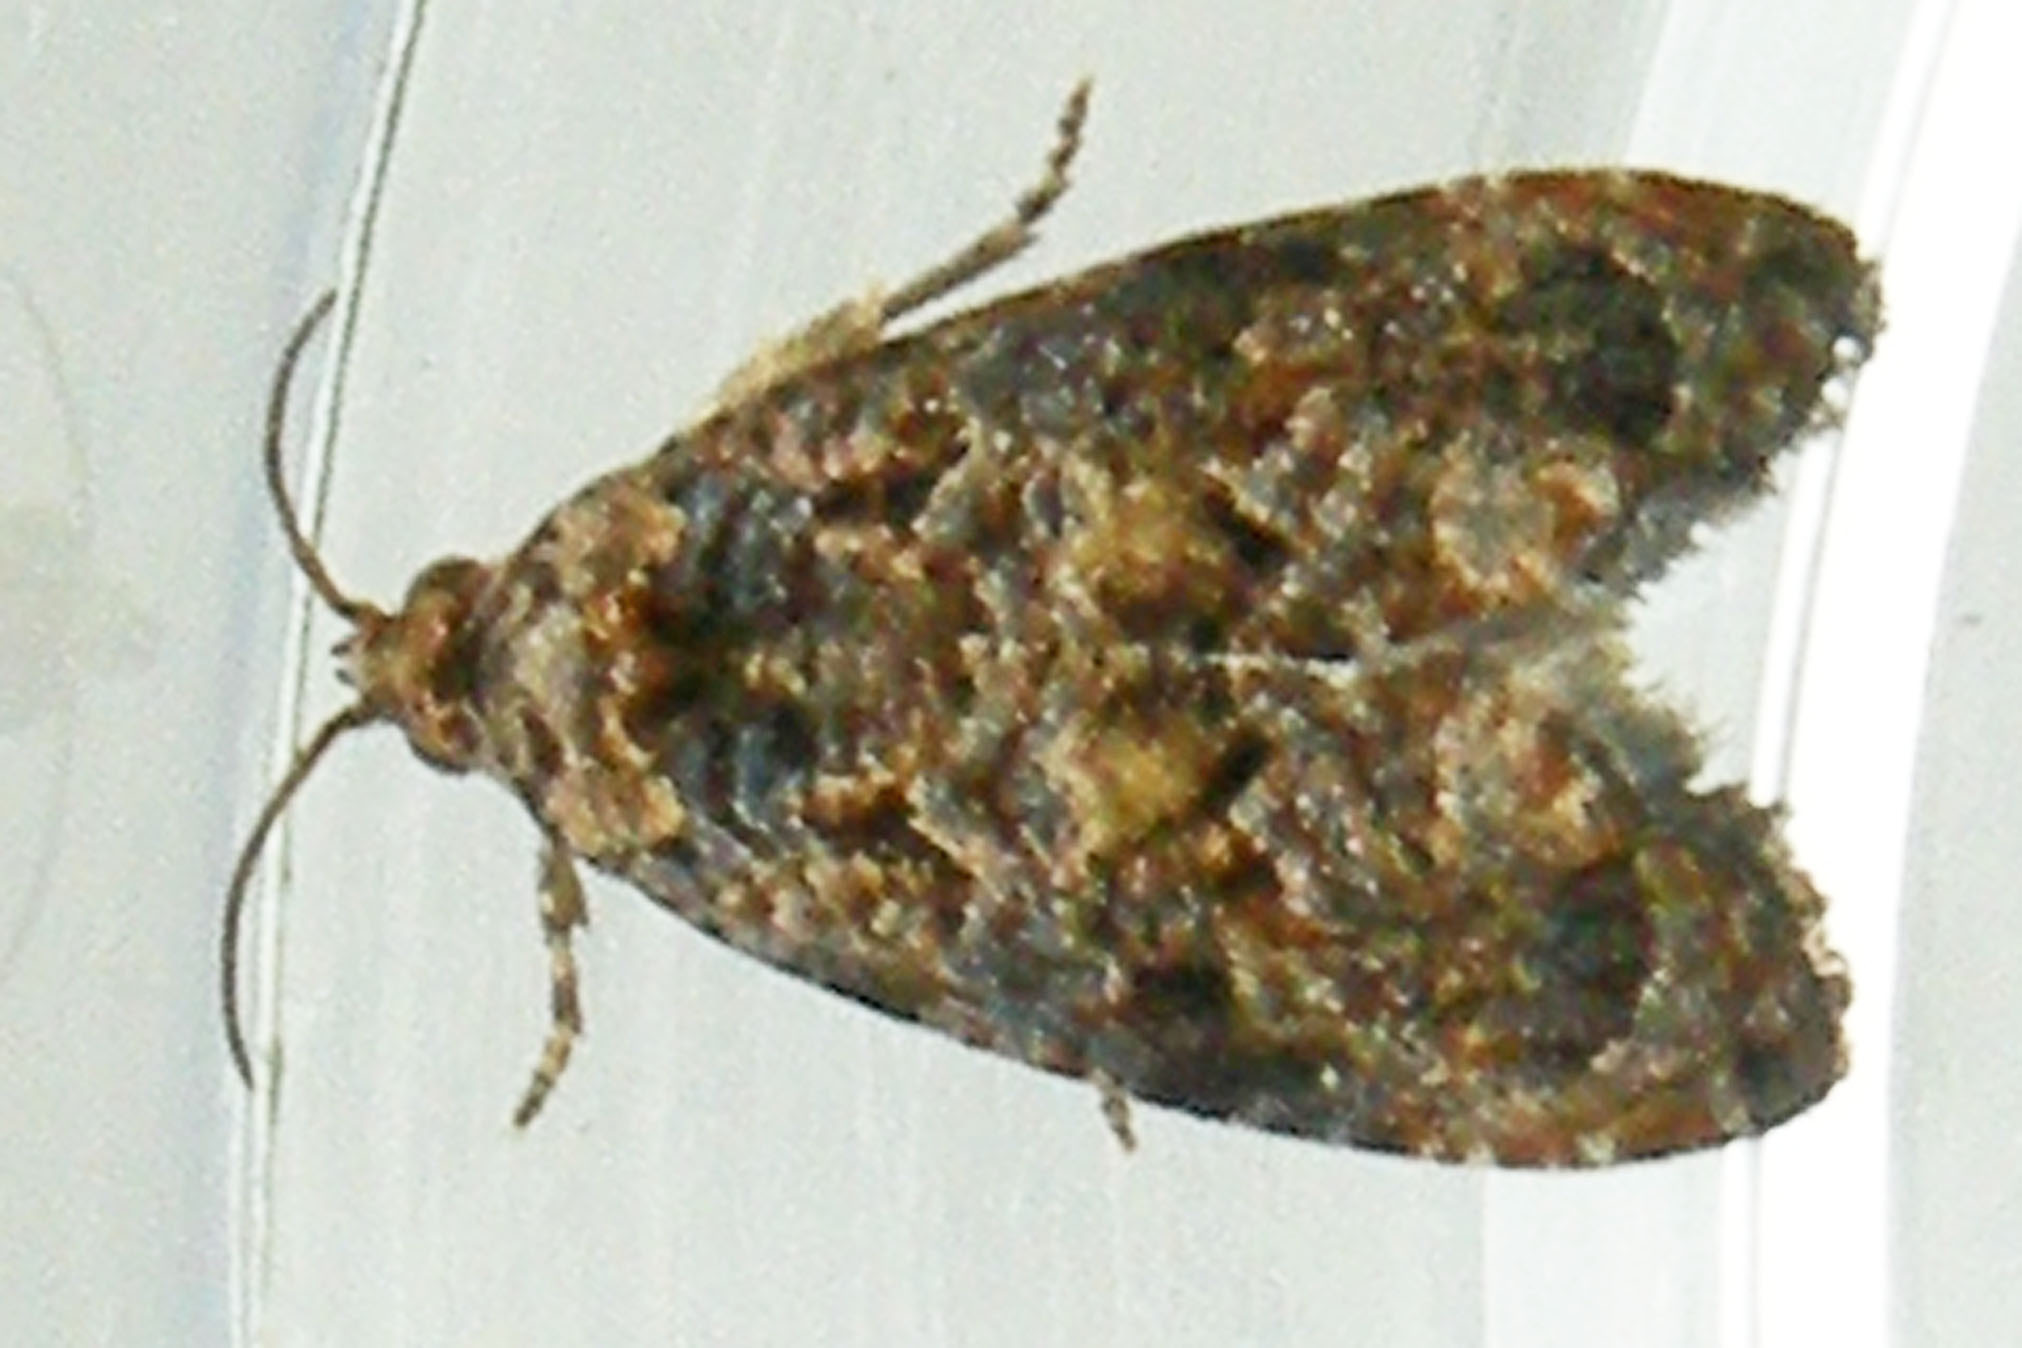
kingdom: Animalia
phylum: Arthropoda
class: Insecta
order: Lepidoptera
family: Tortricidae
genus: Endothenia
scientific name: Endothenia hebesana
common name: Verbena bud moth
